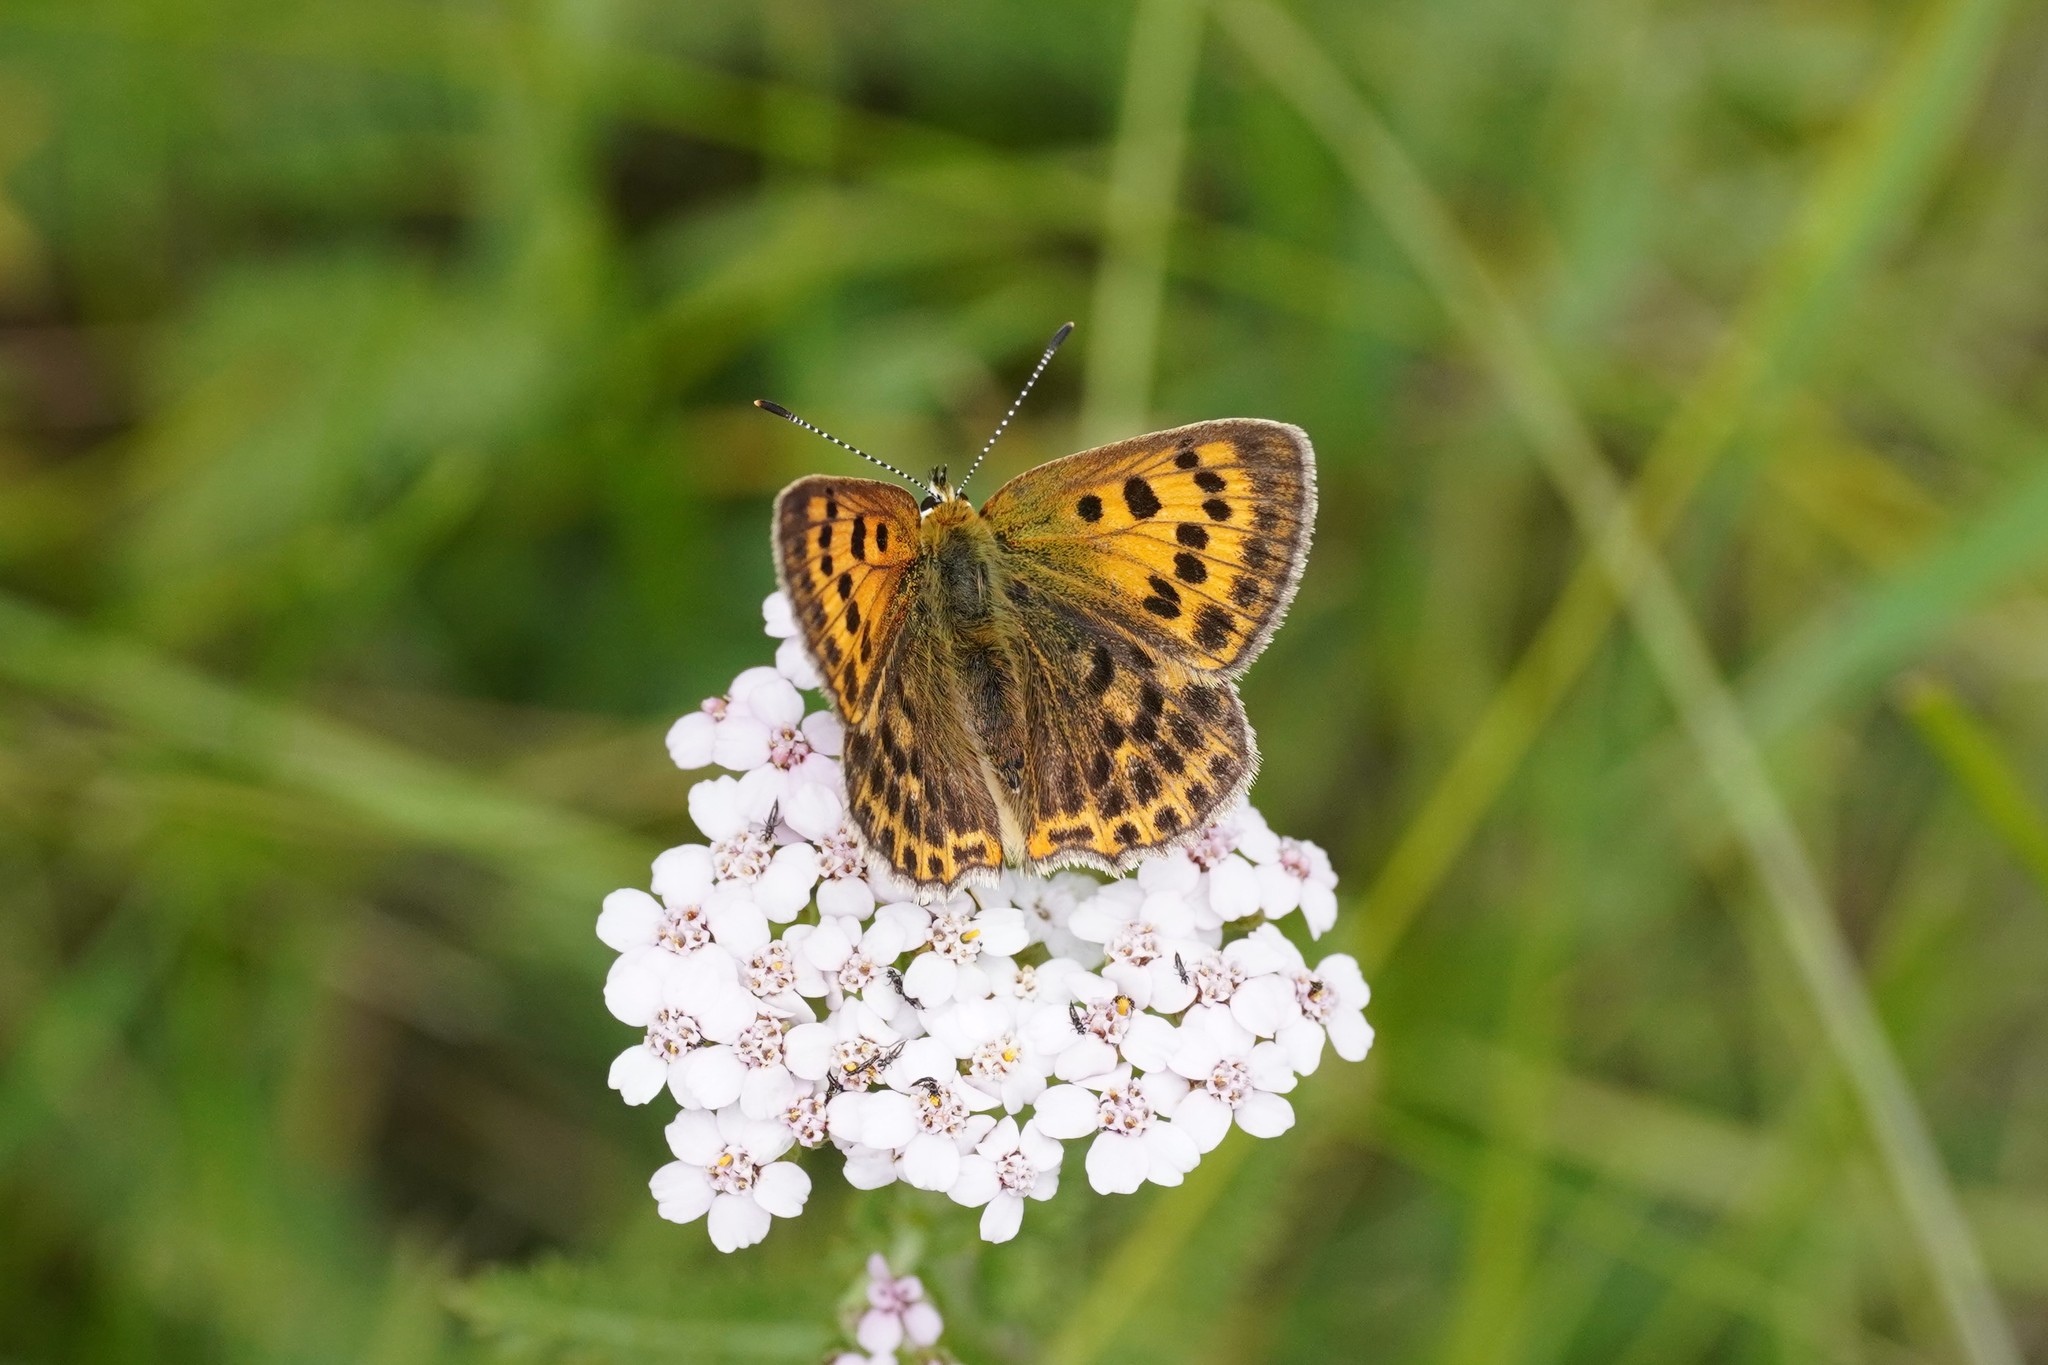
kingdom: Animalia
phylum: Arthropoda
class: Insecta
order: Lepidoptera
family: Lycaenidae
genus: Lycaena
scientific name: Lycaena virgaureae
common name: Scarce copper
